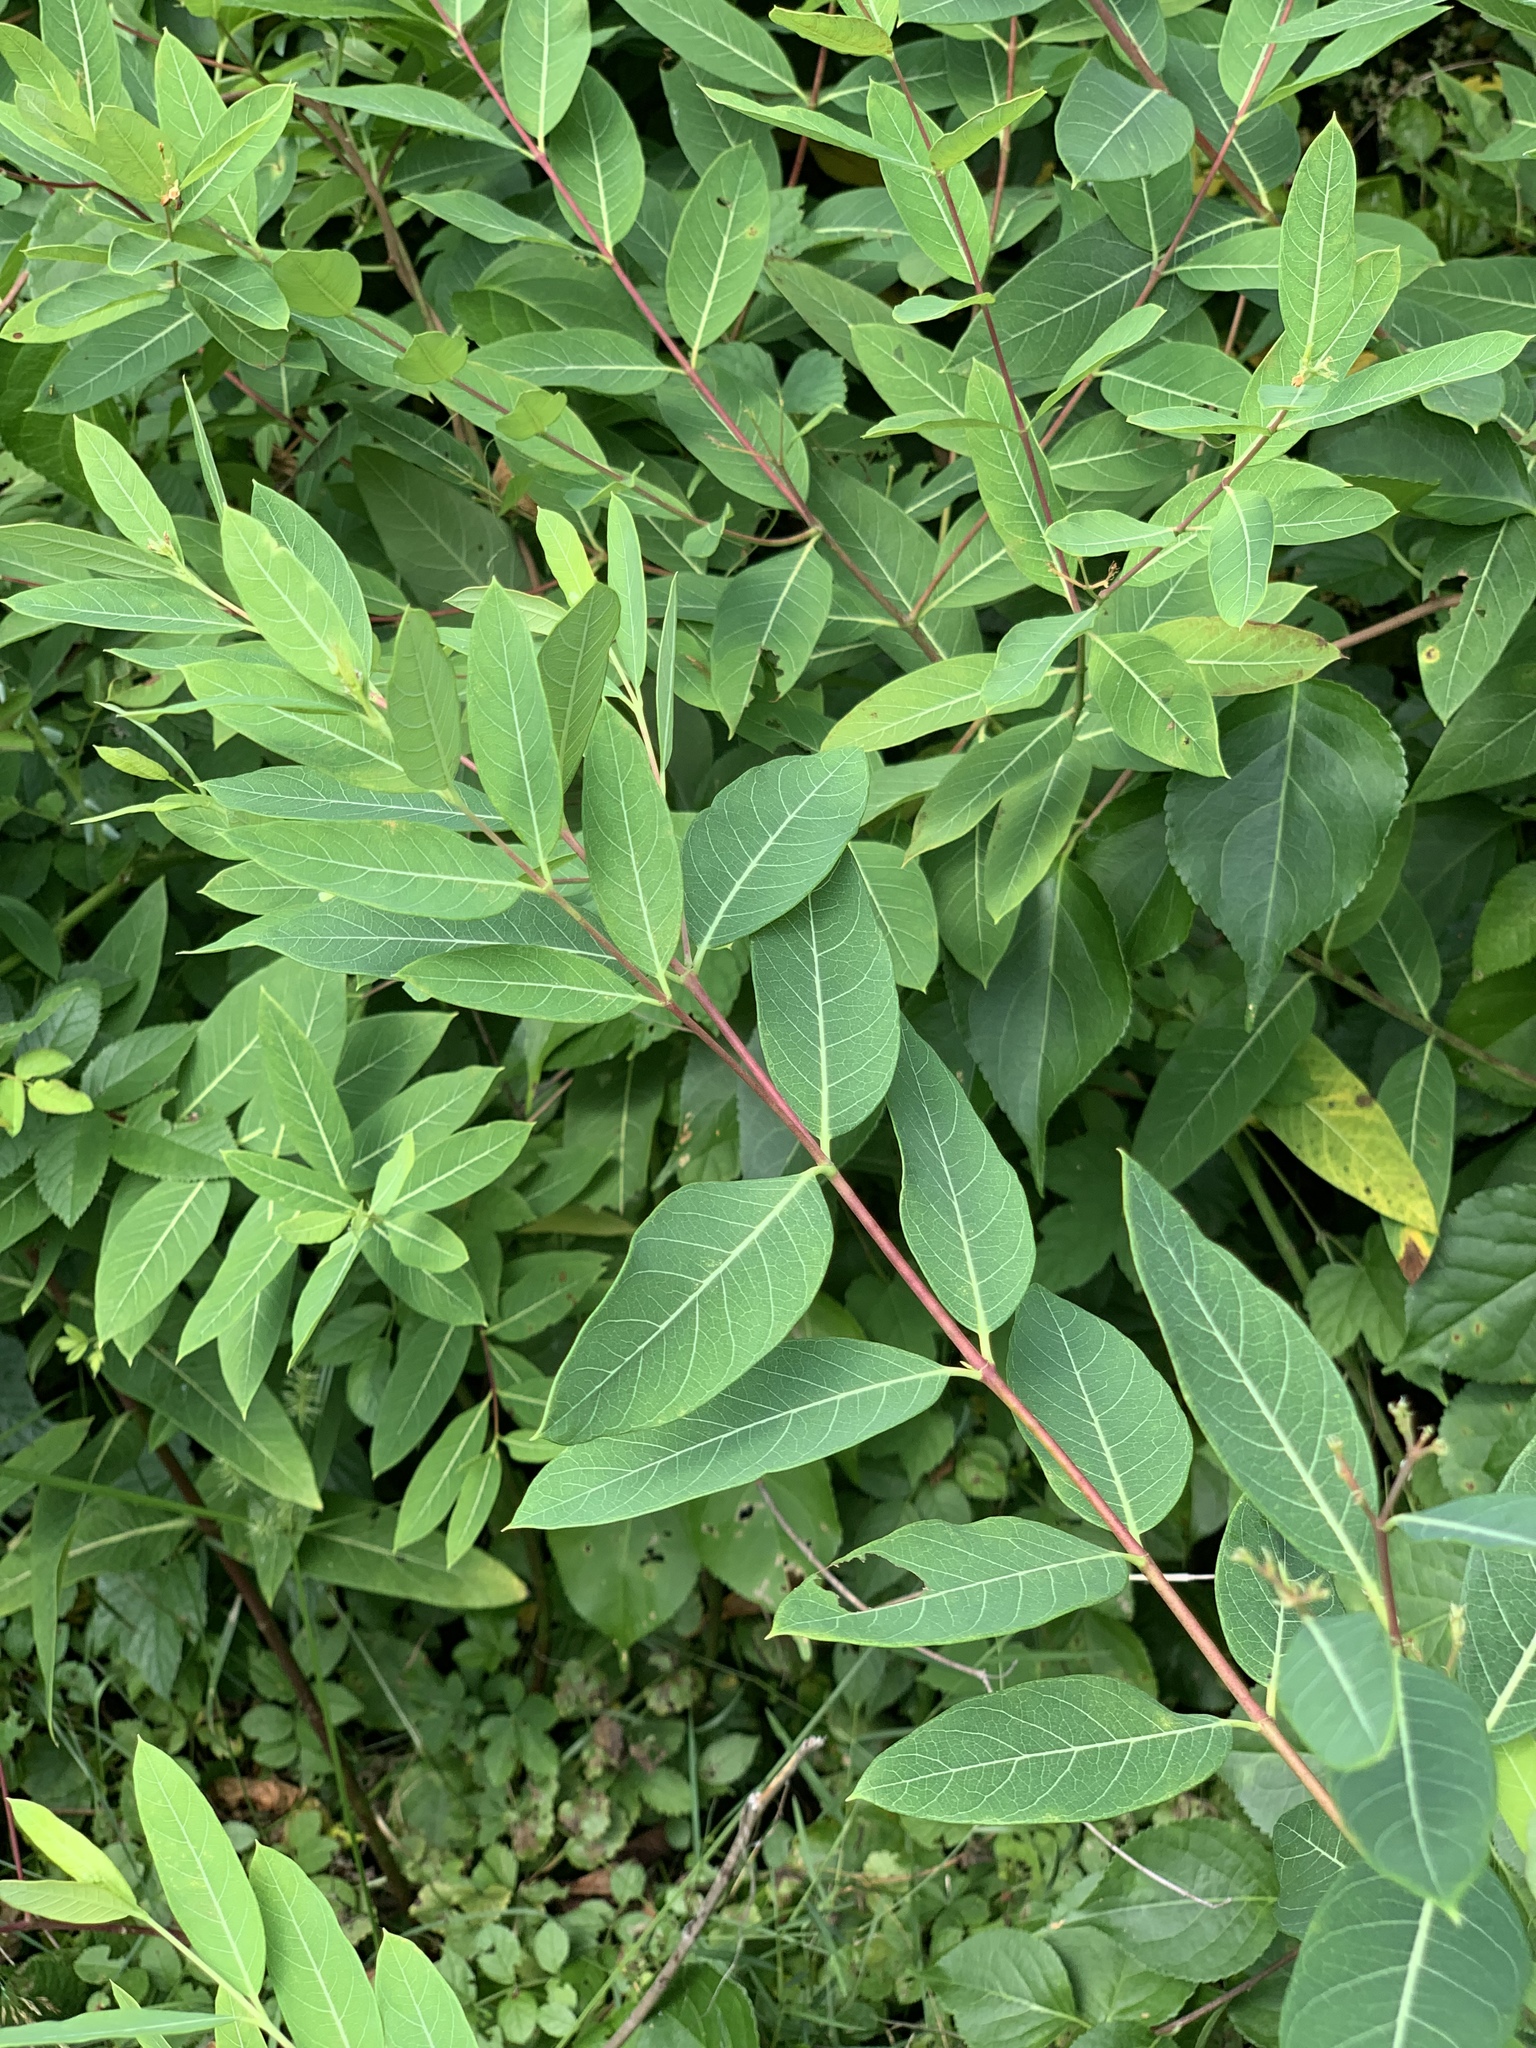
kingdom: Plantae
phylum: Tracheophyta
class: Magnoliopsida
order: Gentianales
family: Apocynaceae
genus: Apocynum
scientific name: Apocynum cannabinum
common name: Hemp dogbane
